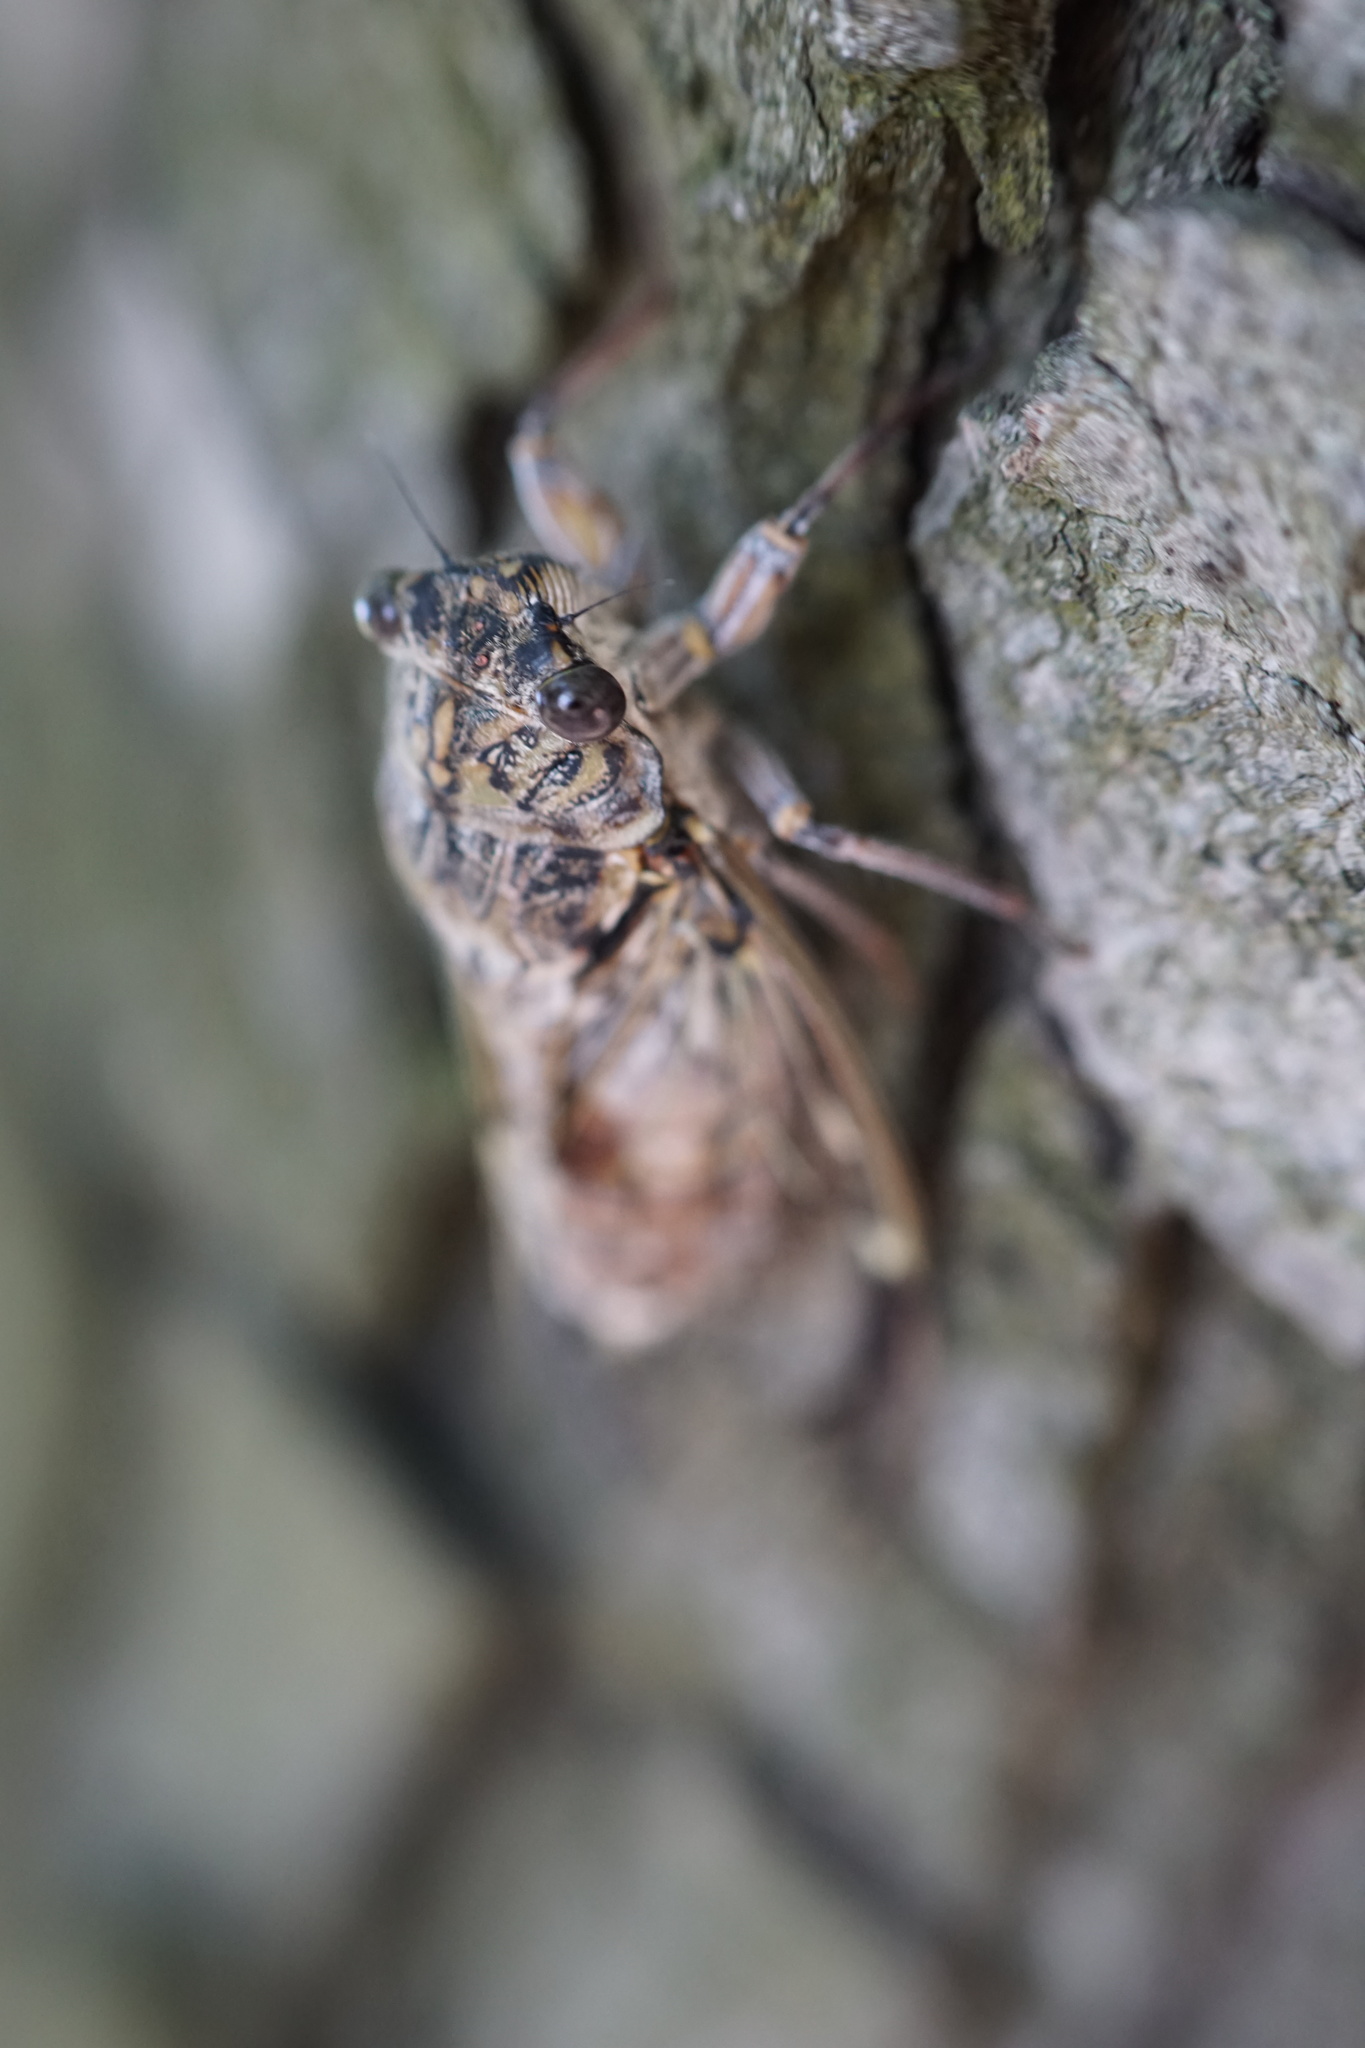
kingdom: Animalia
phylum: Arthropoda
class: Insecta
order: Hemiptera
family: Cicadidae
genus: Cicada
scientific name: Cicada orni
